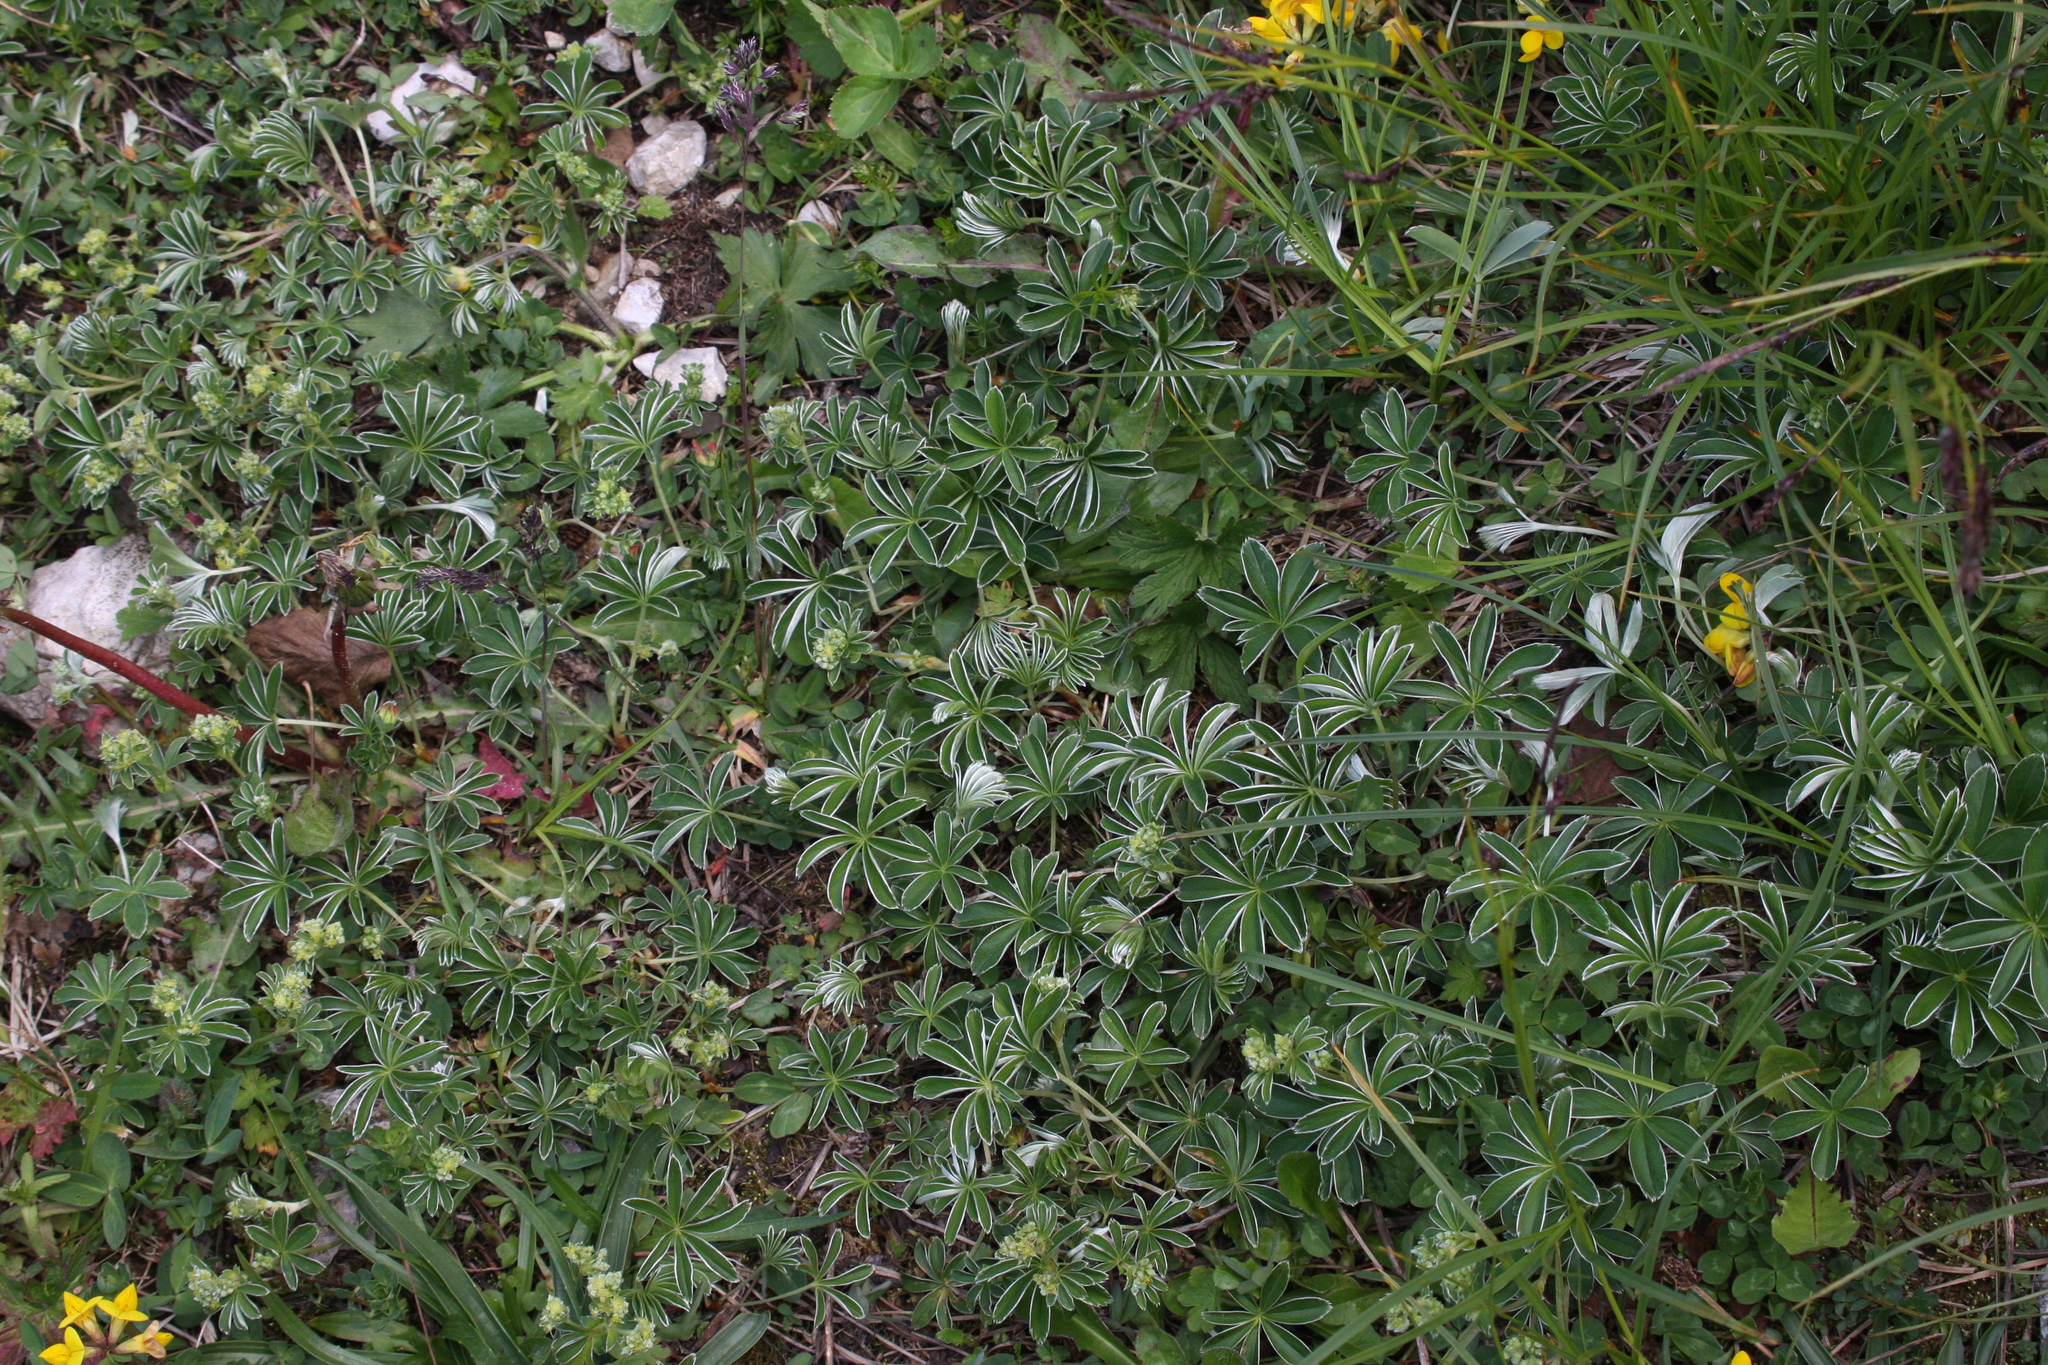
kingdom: Plantae
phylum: Tracheophyta
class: Magnoliopsida
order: Rosales
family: Rosaceae
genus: Alchemilla
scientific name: Alchemilla alpina
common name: Alpine lady's-mantle
